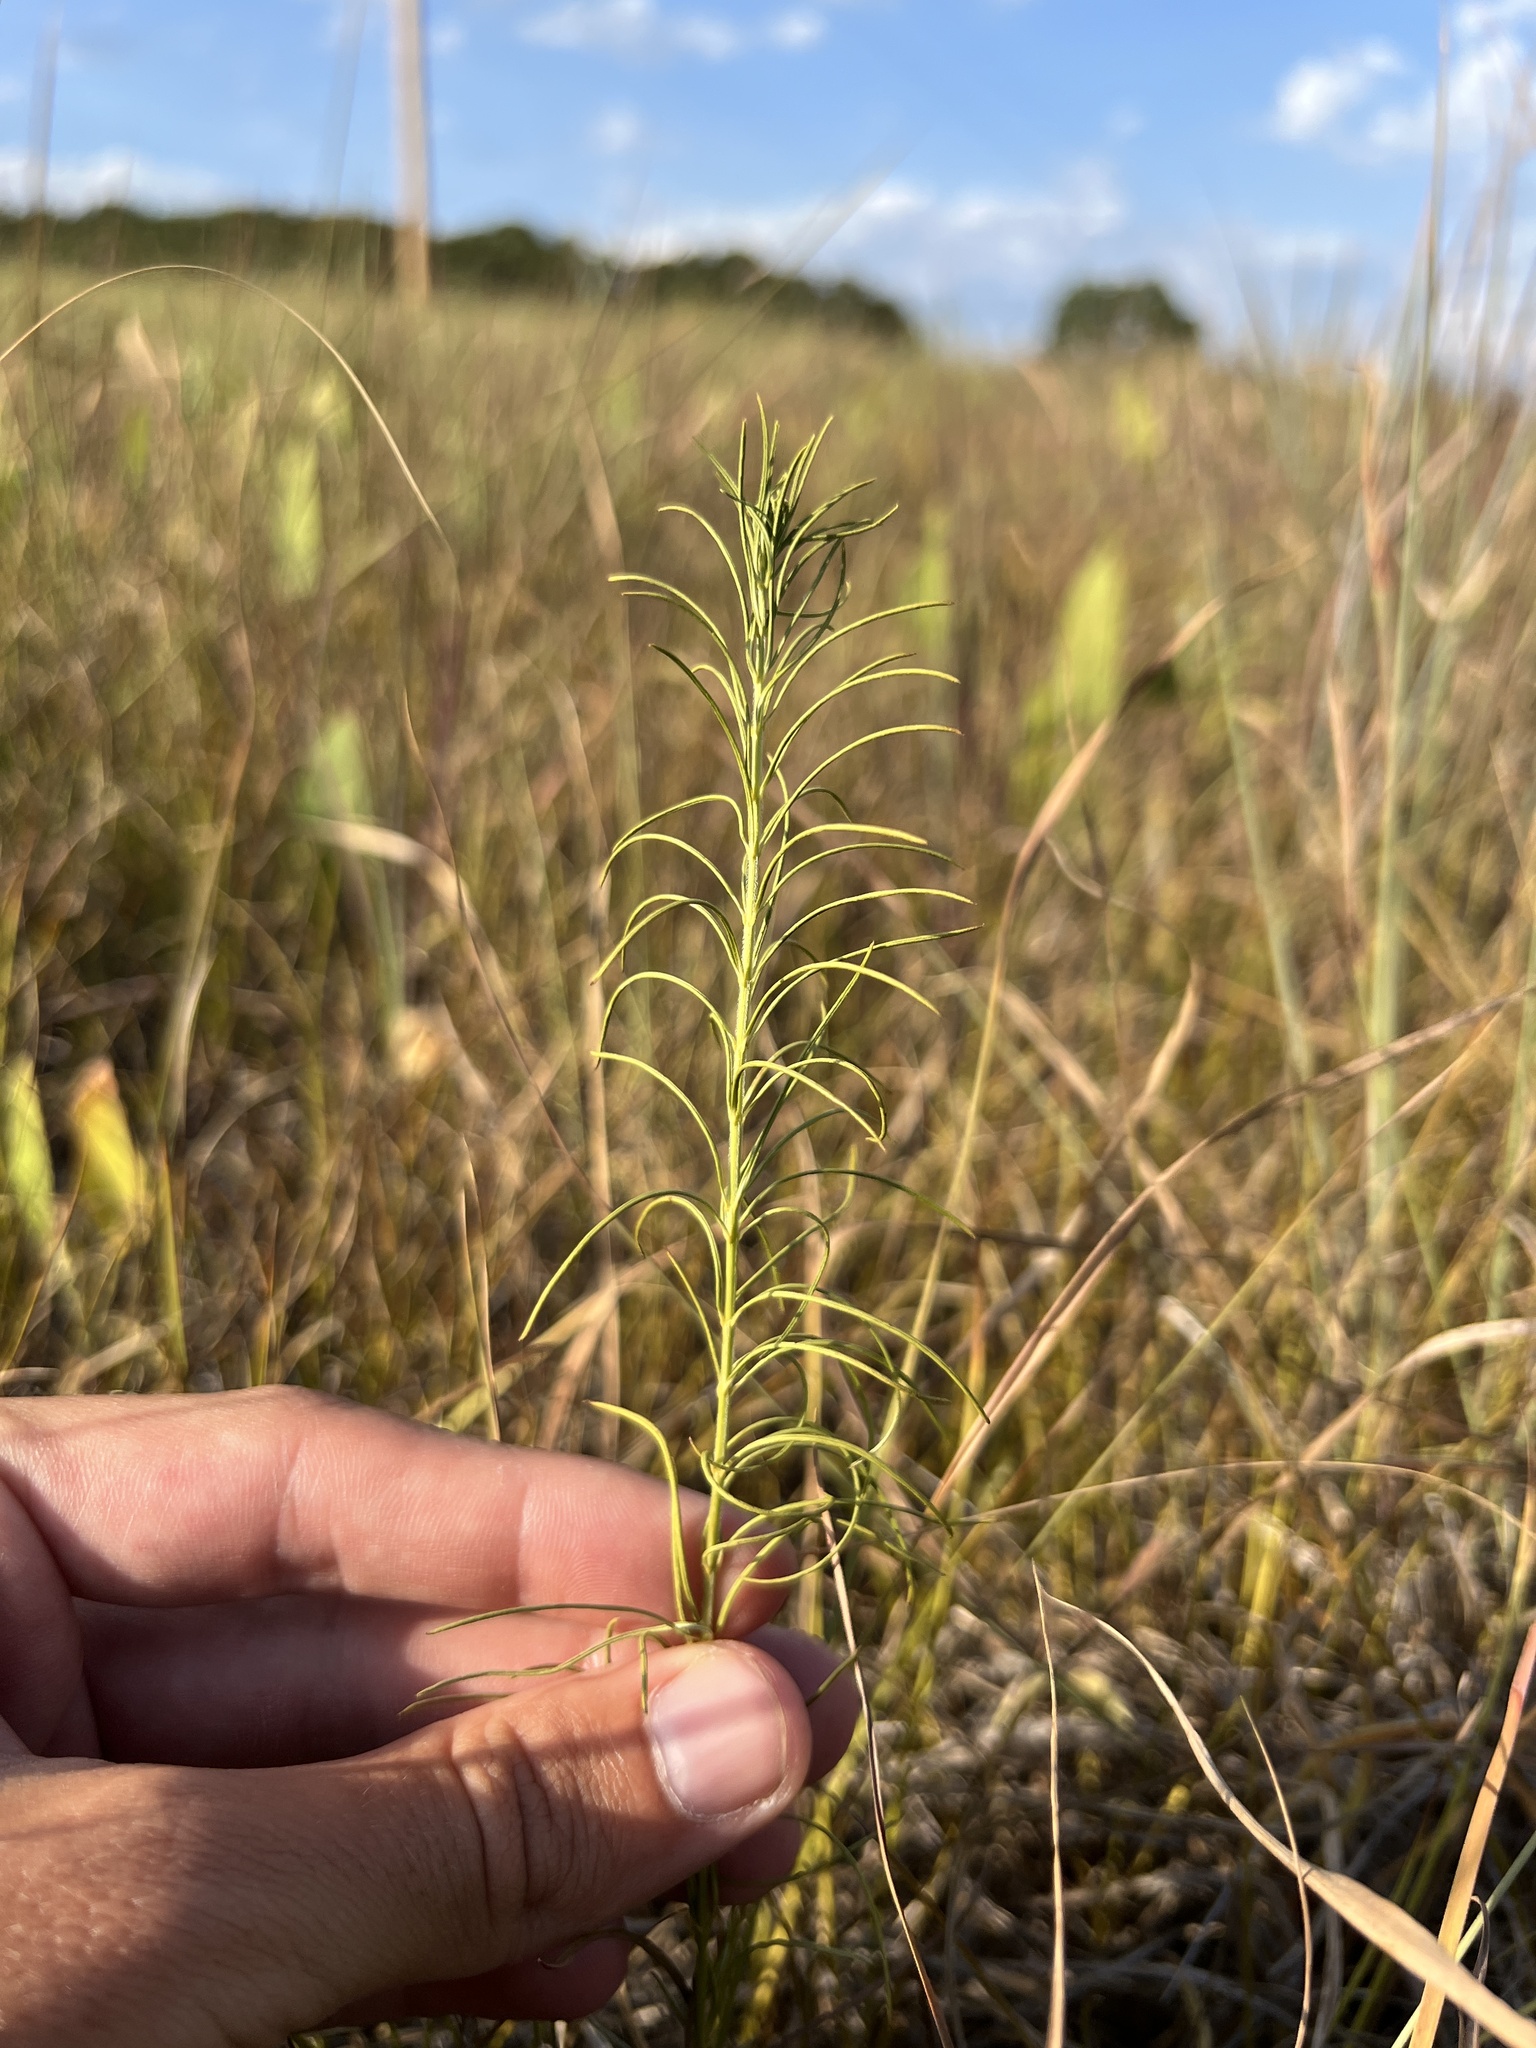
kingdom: Plantae
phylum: Tracheophyta
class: Magnoliopsida
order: Gentianales
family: Apocynaceae
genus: Asclepias
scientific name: Asclepias verticillata
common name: Eastern whorled milkweed
